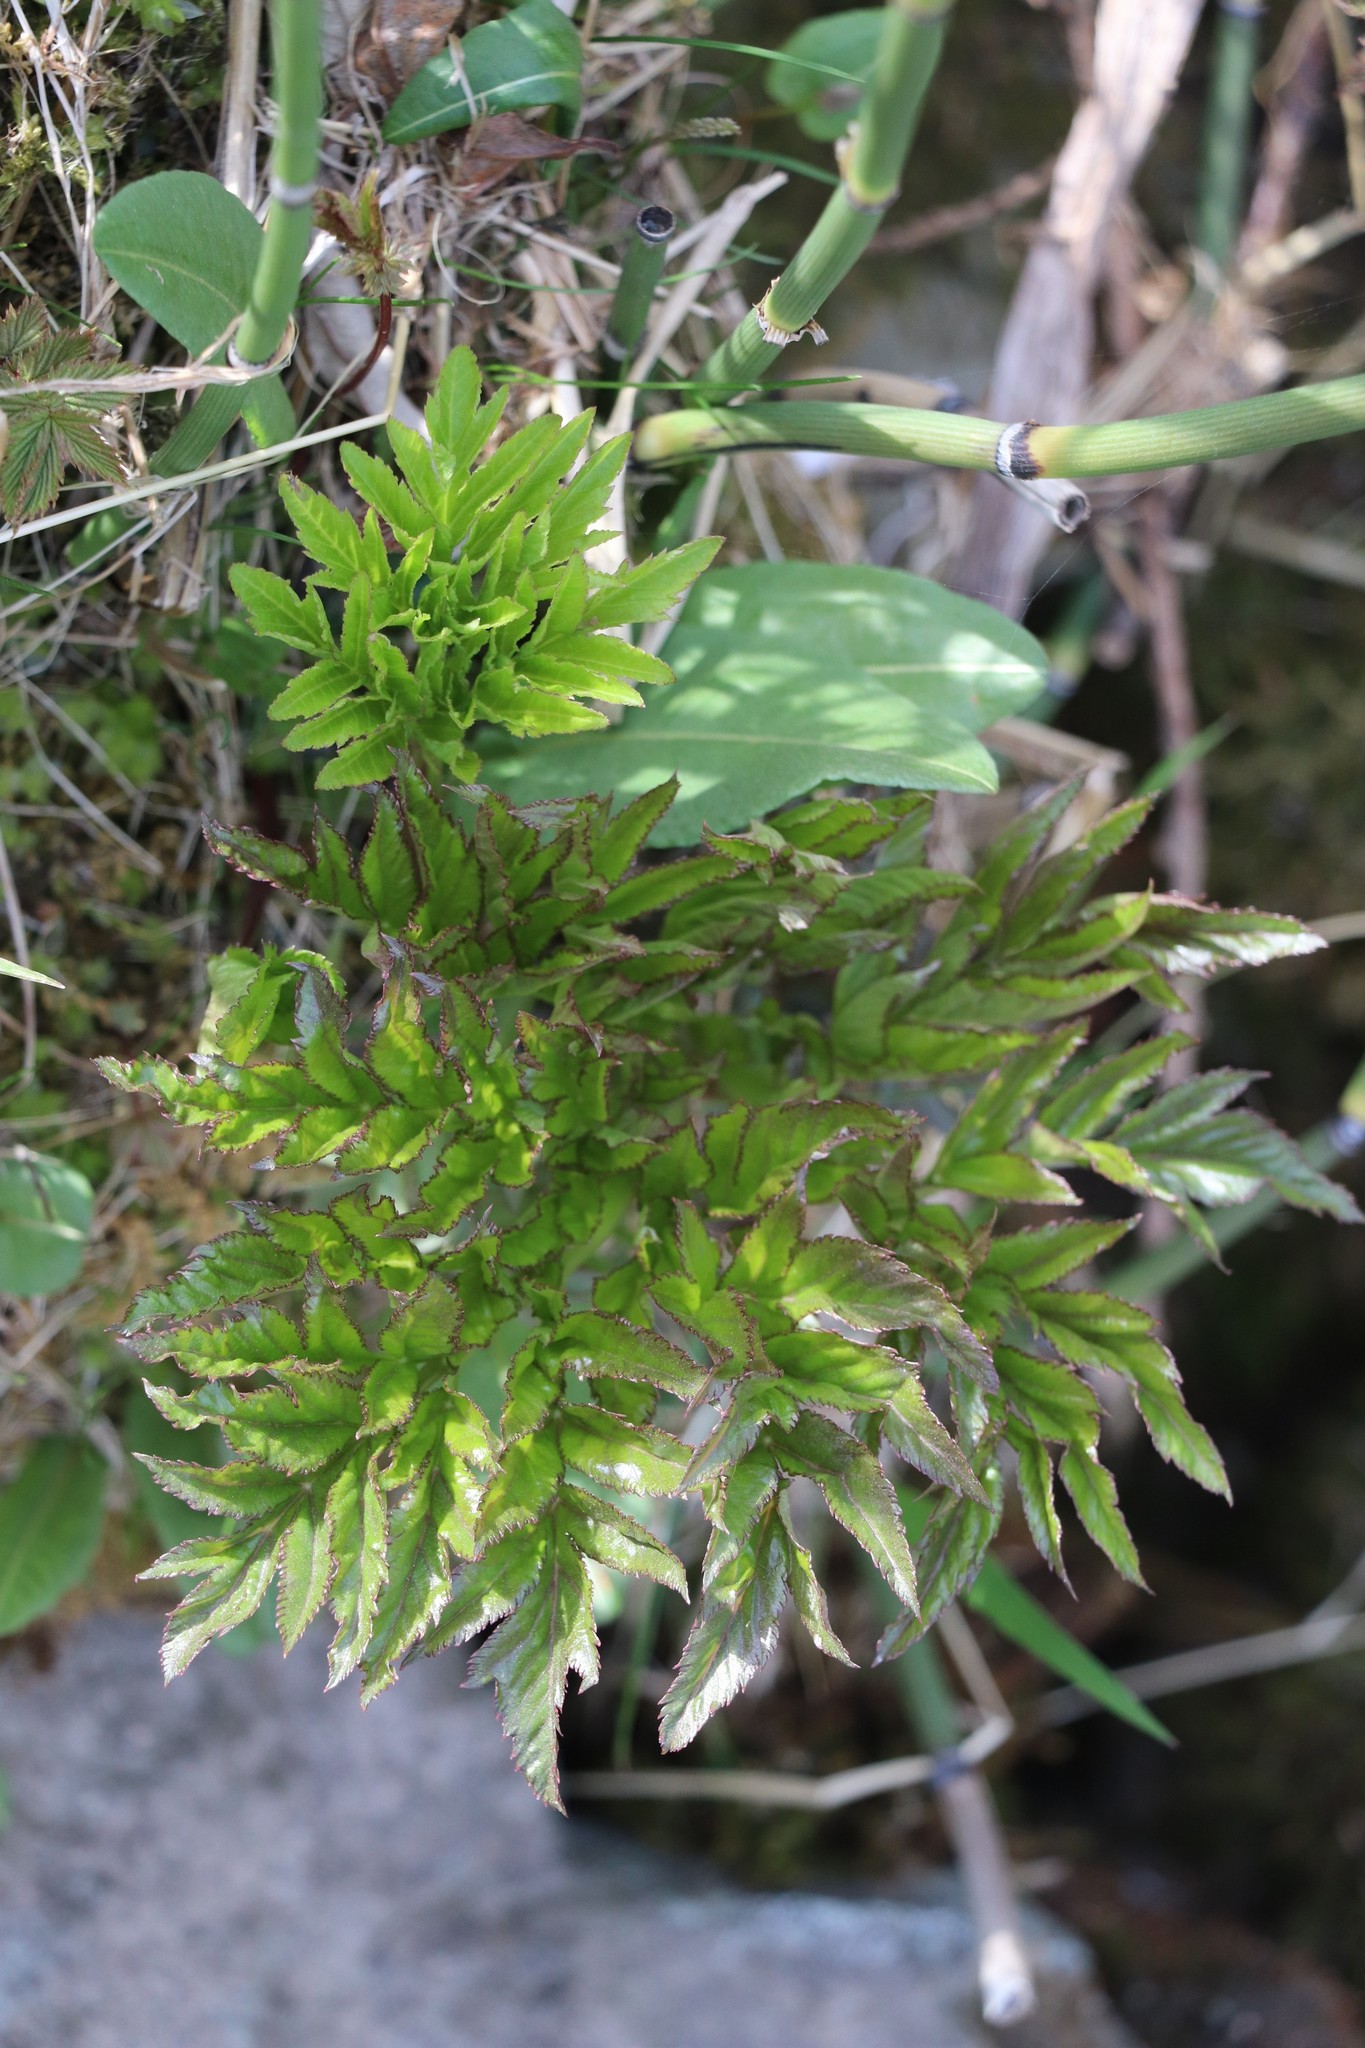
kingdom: Plantae
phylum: Tracheophyta
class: Magnoliopsida
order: Apiales
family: Apiaceae
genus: Angelica
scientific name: Angelica decurrens
